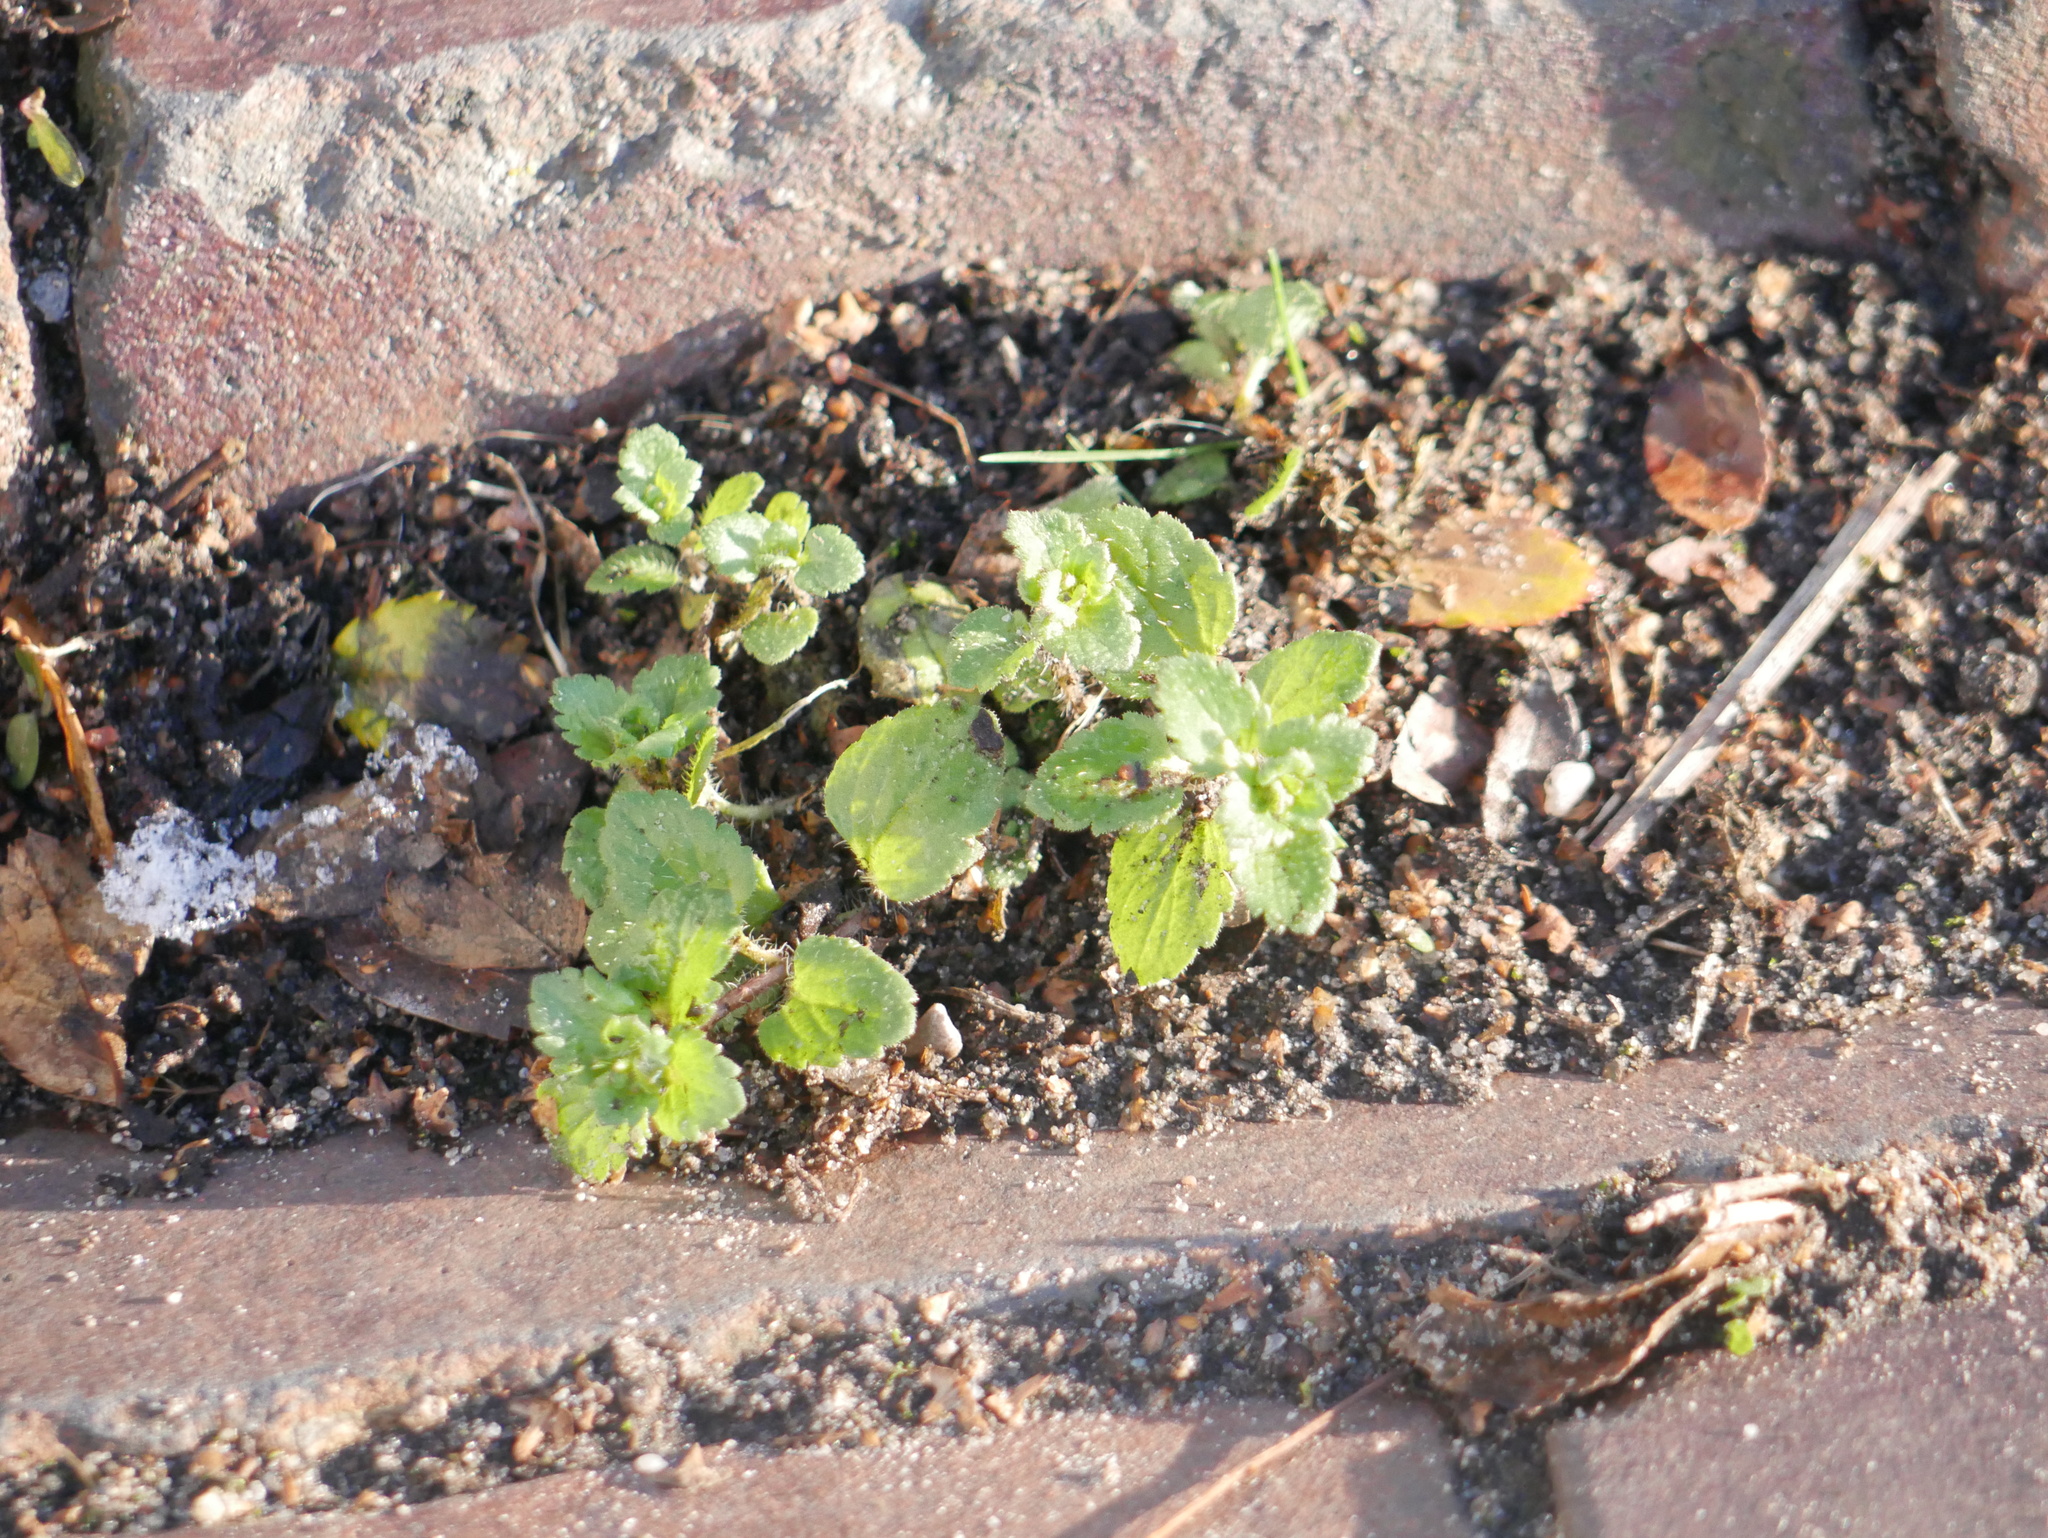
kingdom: Plantae
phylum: Tracheophyta
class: Magnoliopsida
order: Lamiales
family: Plantaginaceae
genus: Veronica
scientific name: Veronica persica
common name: Common field-speedwell
